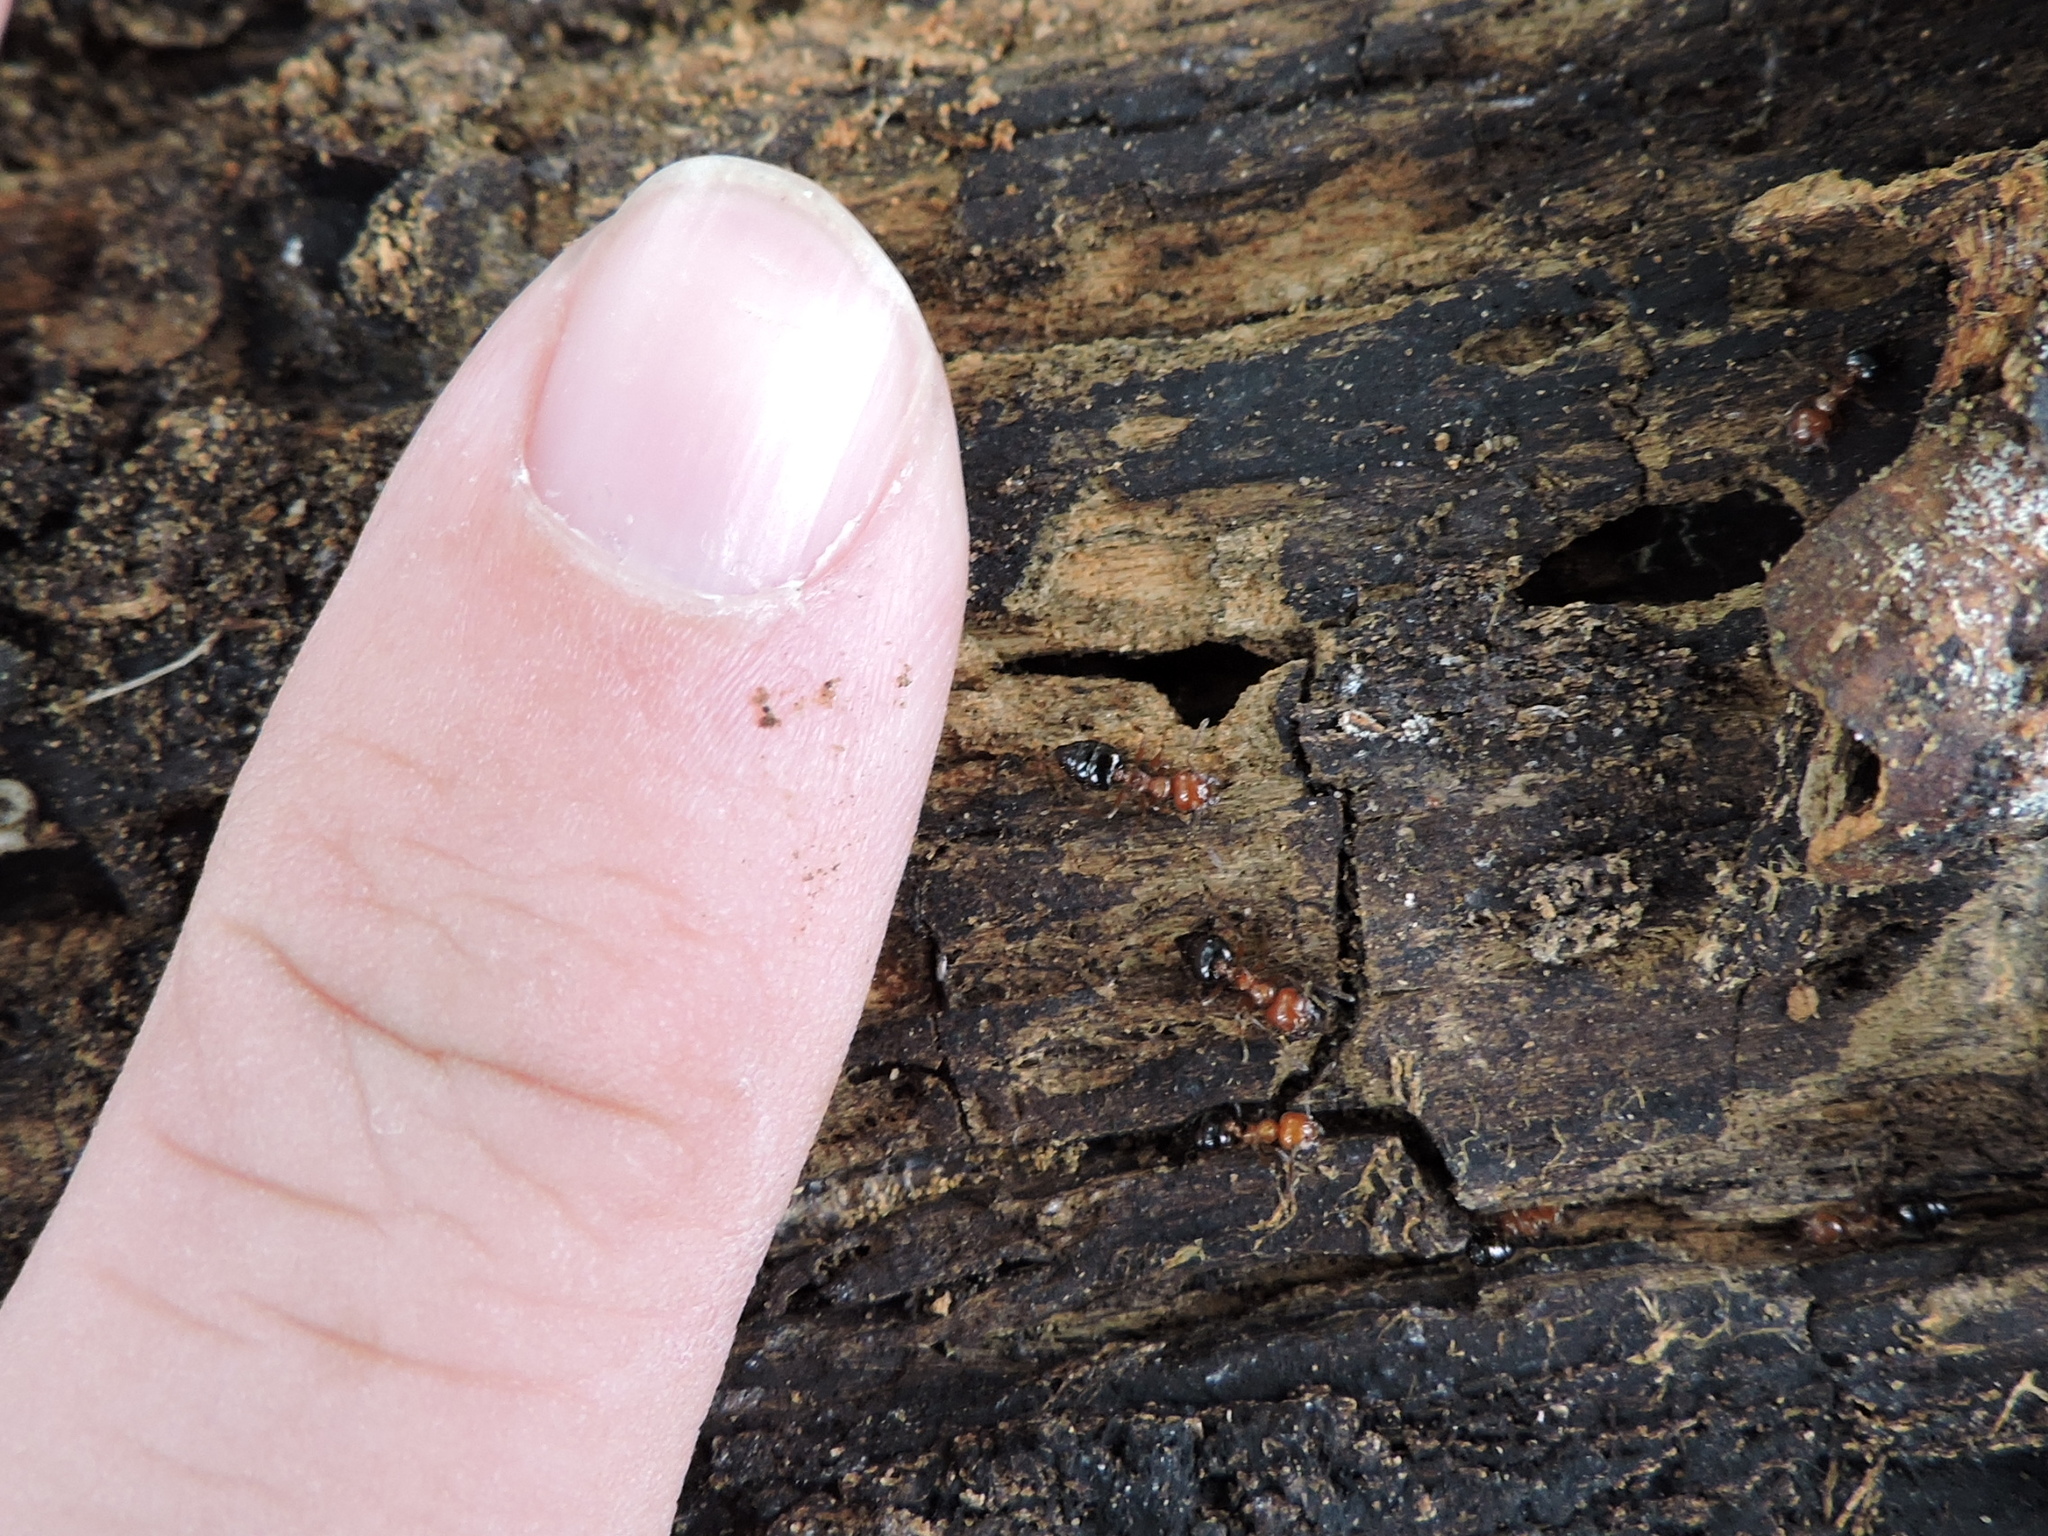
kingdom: Animalia
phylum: Arthropoda
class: Insecta
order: Hymenoptera
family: Formicidae
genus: Crematogaster
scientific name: Crematogaster laeviuscula
